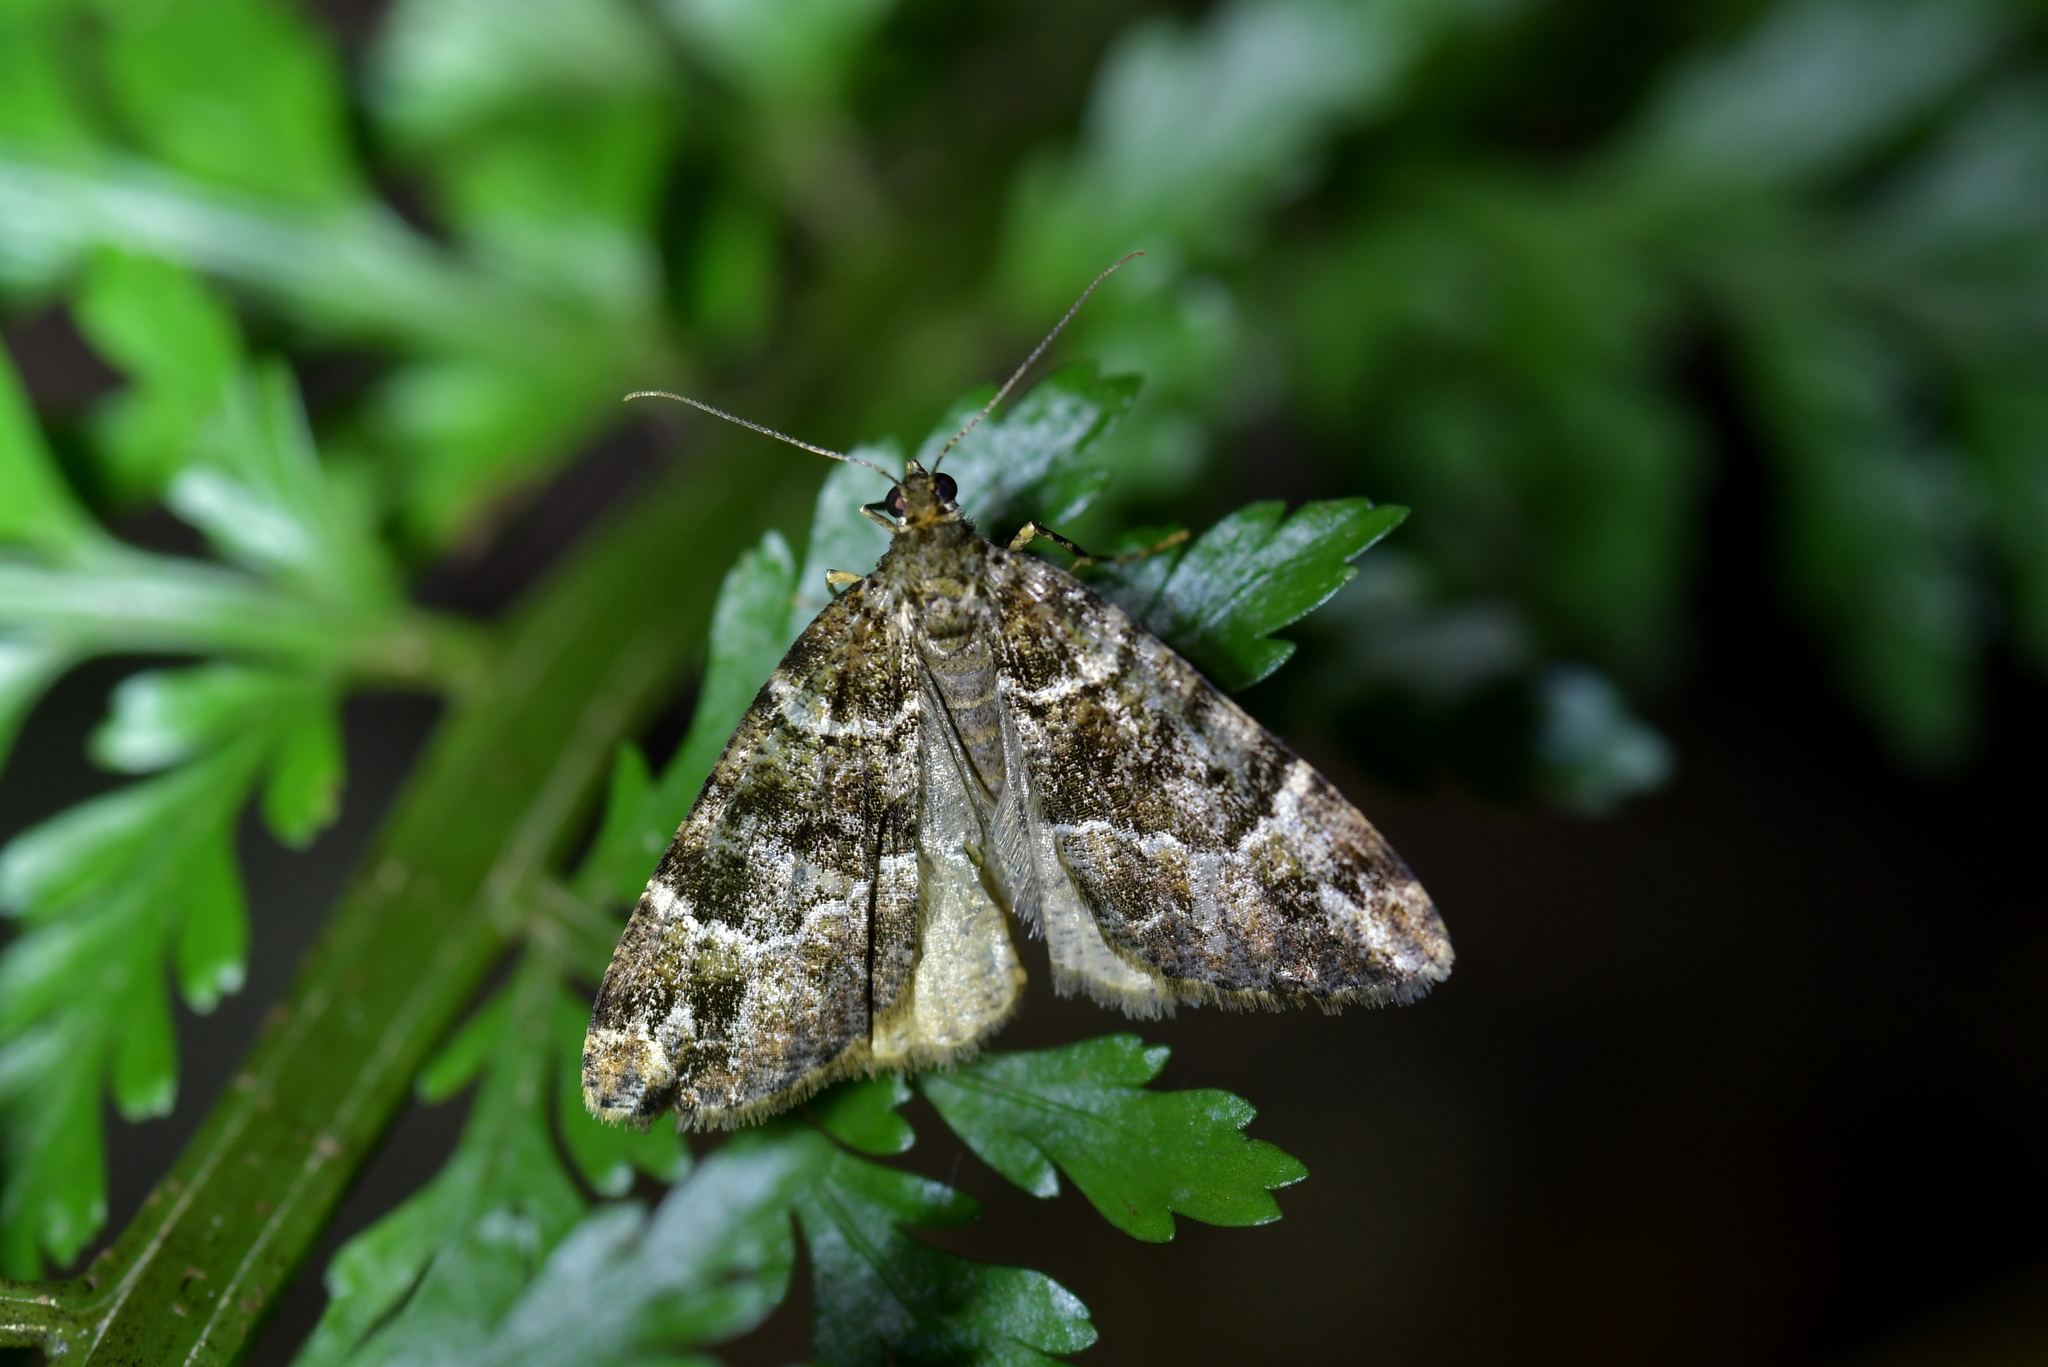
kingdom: Animalia
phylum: Arthropoda
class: Insecta
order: Lepidoptera
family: Geometridae
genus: Pseudocoremia
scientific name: Pseudocoremia productata
